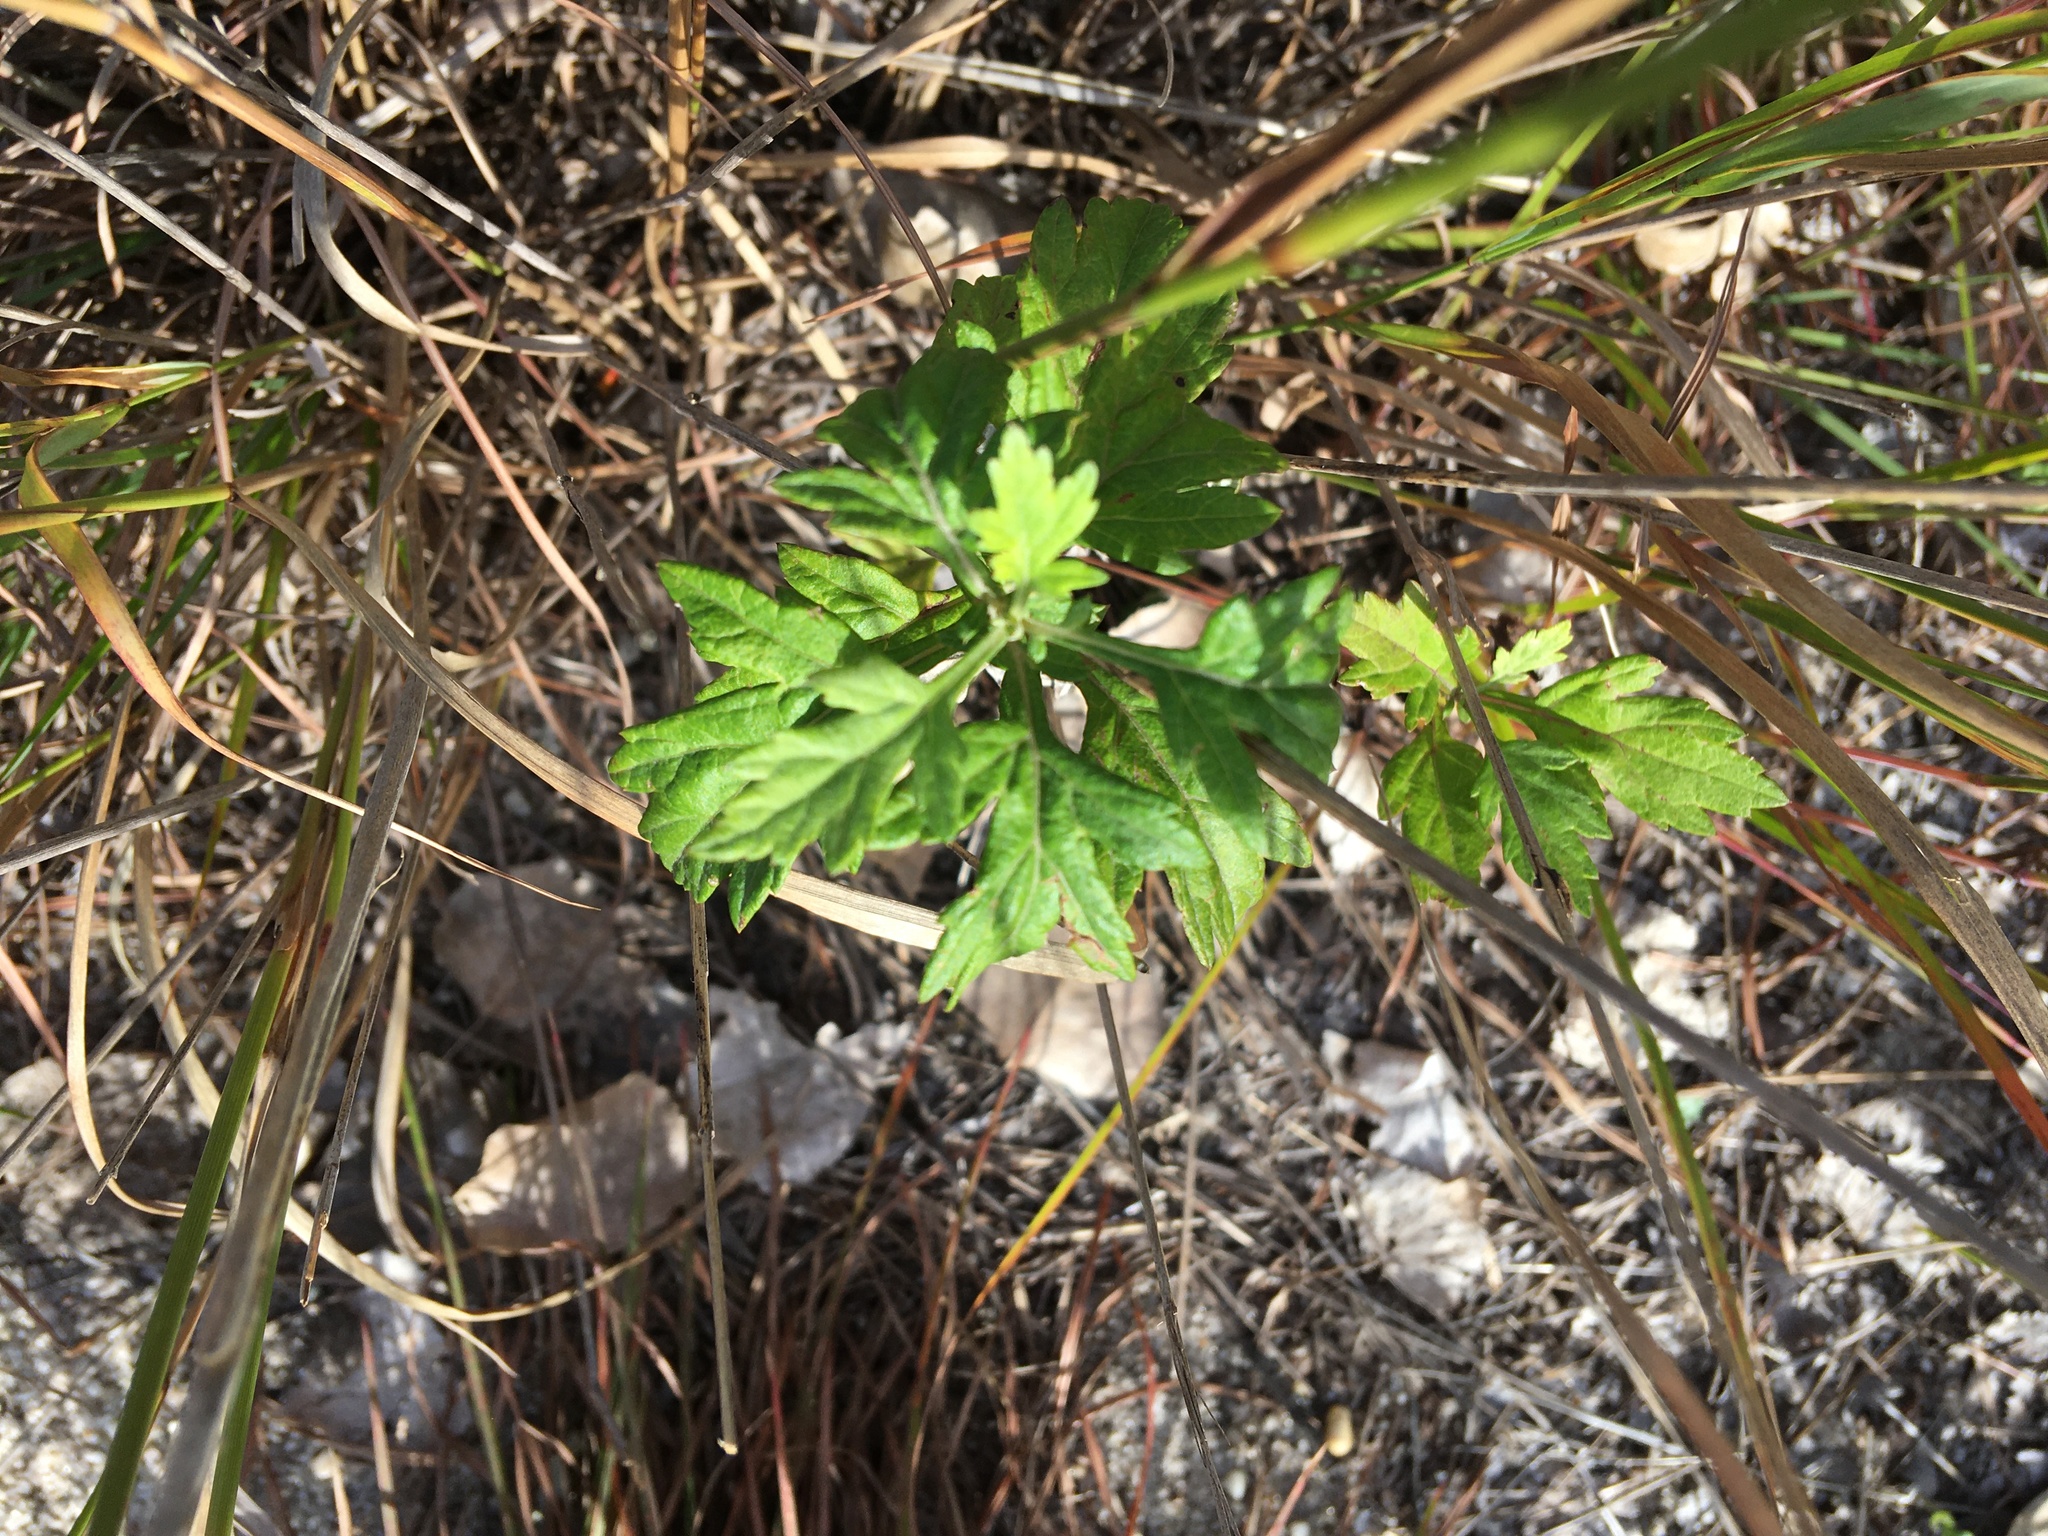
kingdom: Plantae
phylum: Tracheophyta
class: Magnoliopsida
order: Asterales
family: Asteraceae
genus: Artemisia
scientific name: Artemisia vulgaris
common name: Mugwort
